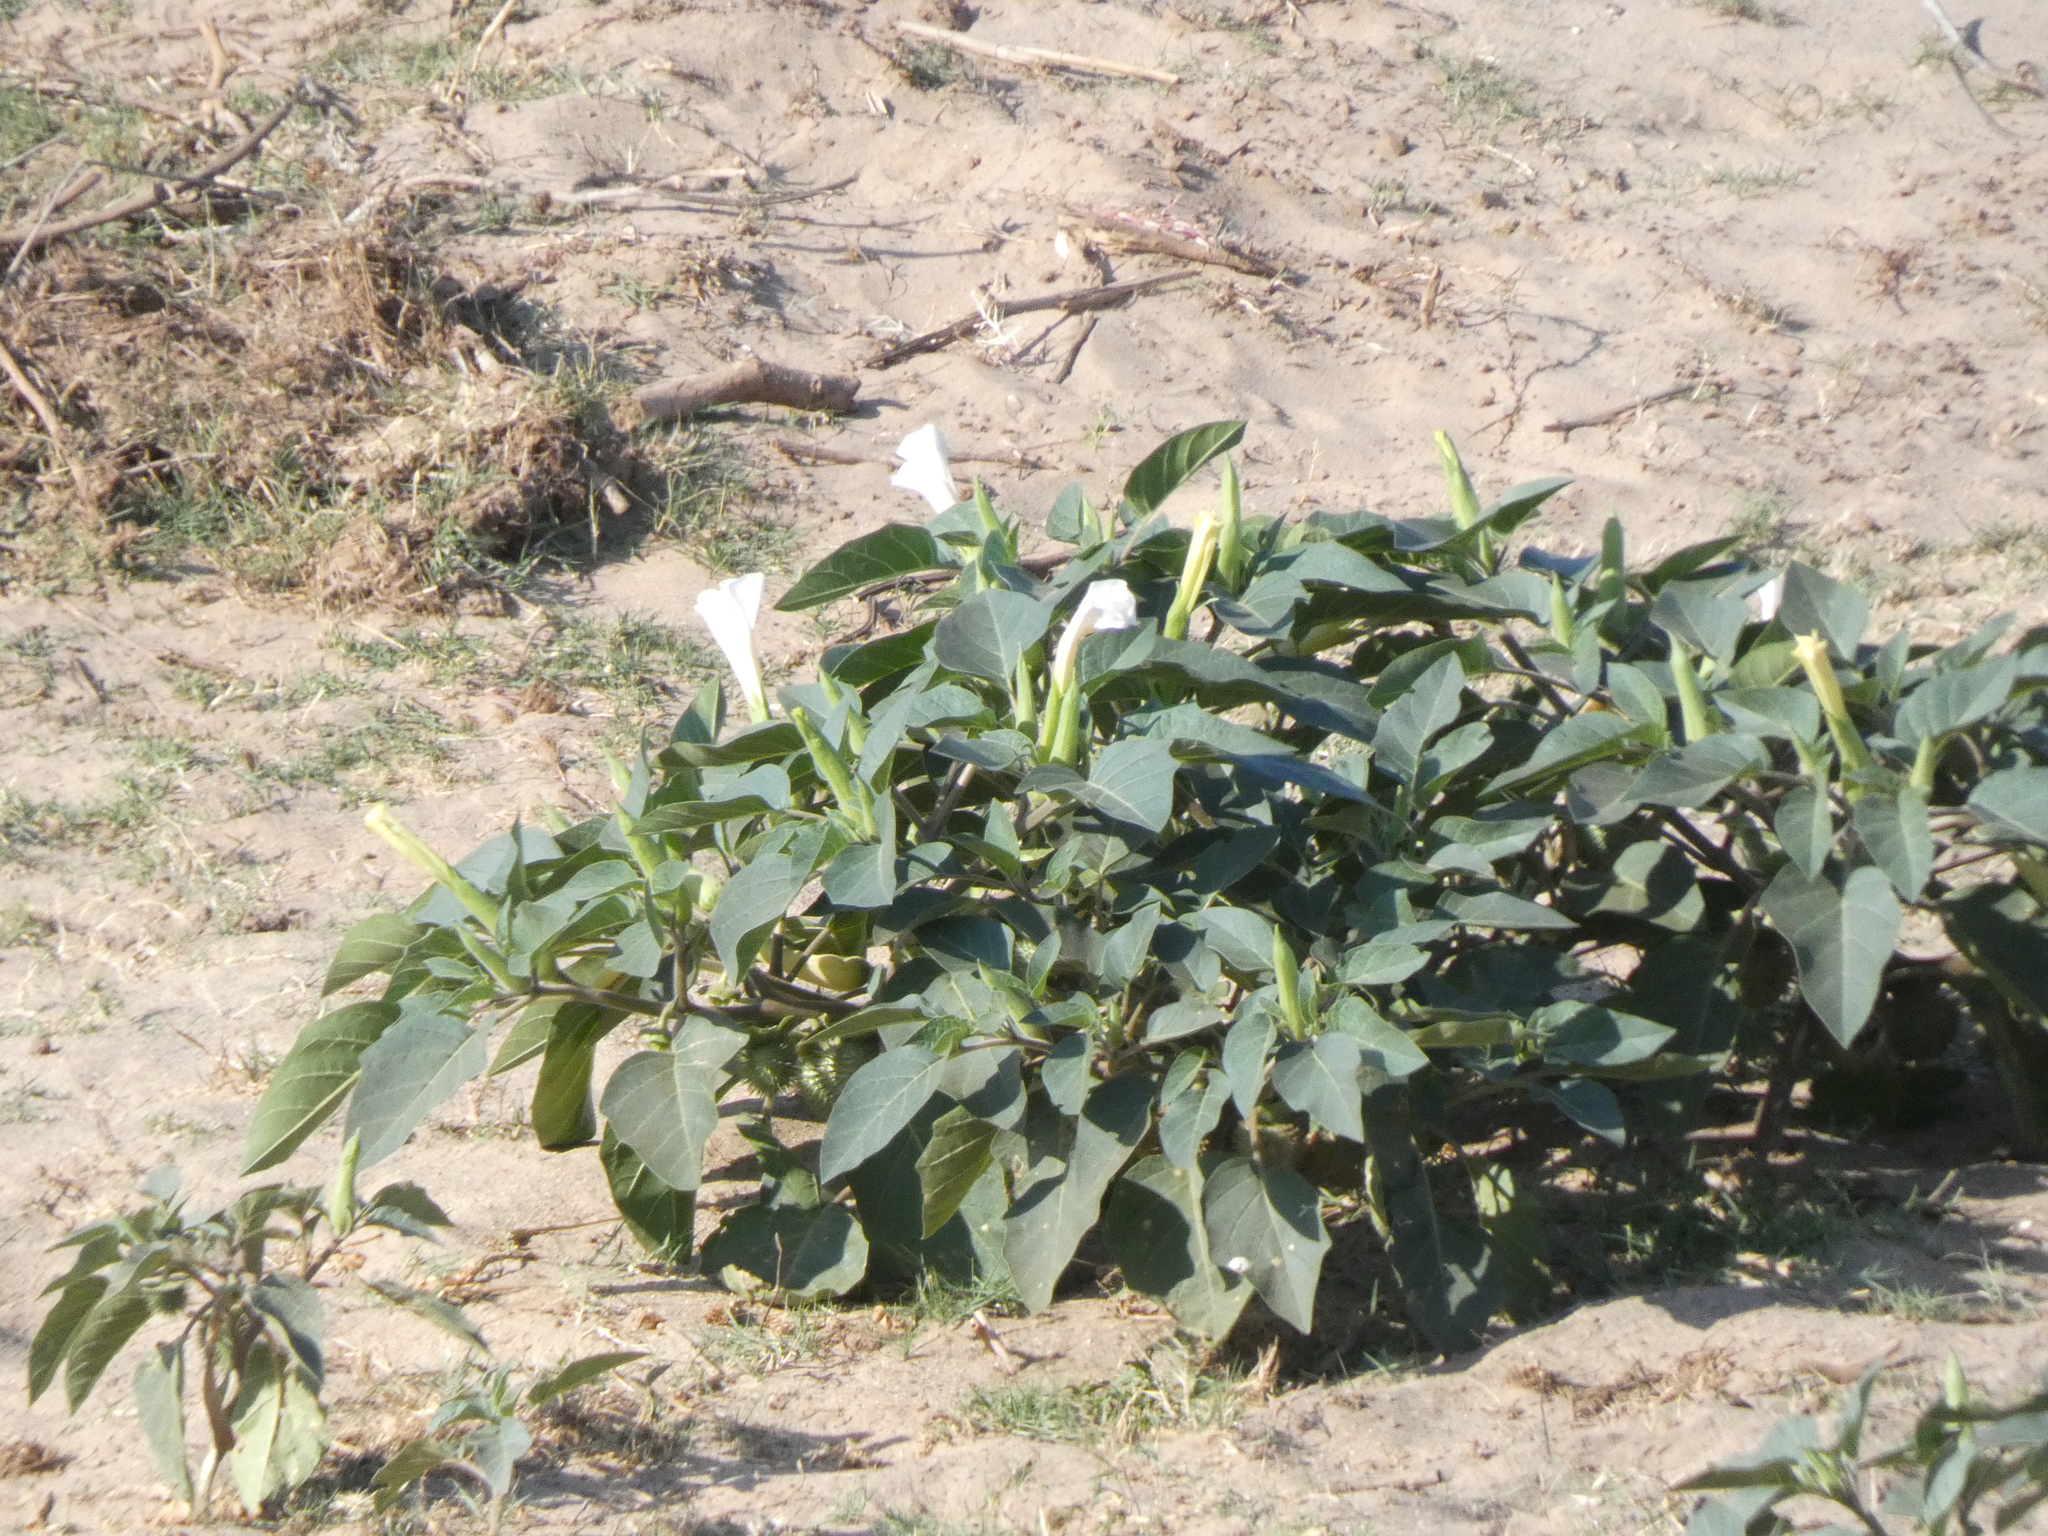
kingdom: Plantae
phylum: Tracheophyta
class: Magnoliopsida
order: Solanales
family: Solanaceae
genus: Datura
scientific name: Datura innoxia
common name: Downy thorn-apple
